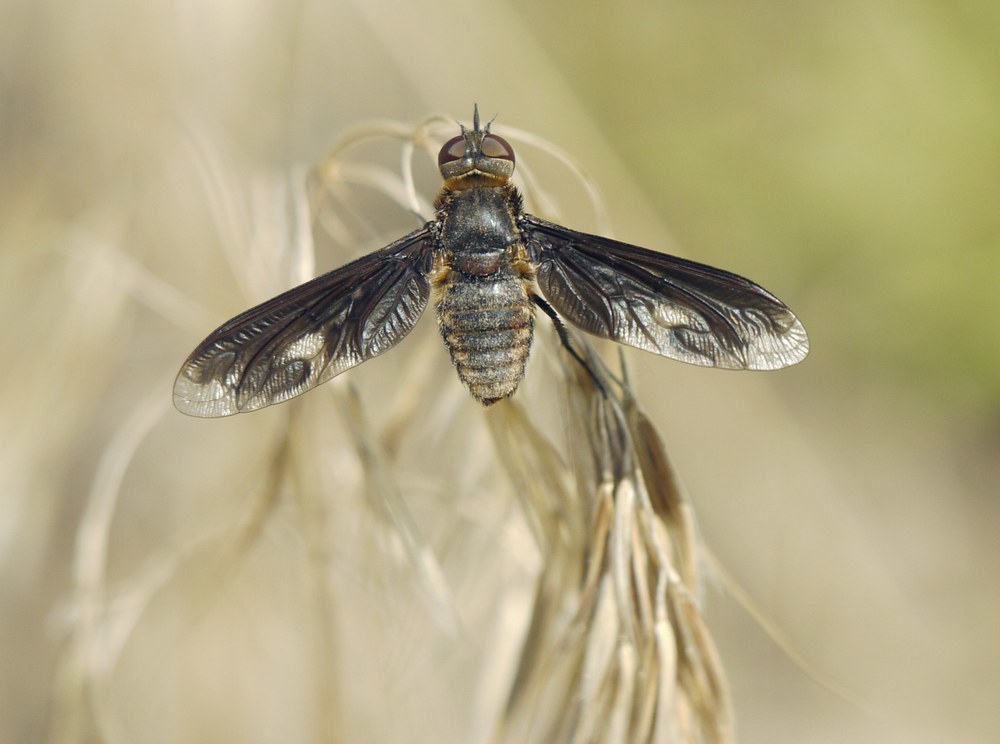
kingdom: Animalia
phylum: Arthropoda
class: Insecta
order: Diptera
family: Bombyliidae
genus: Heteralonia
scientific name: Heteralonia megerlei
